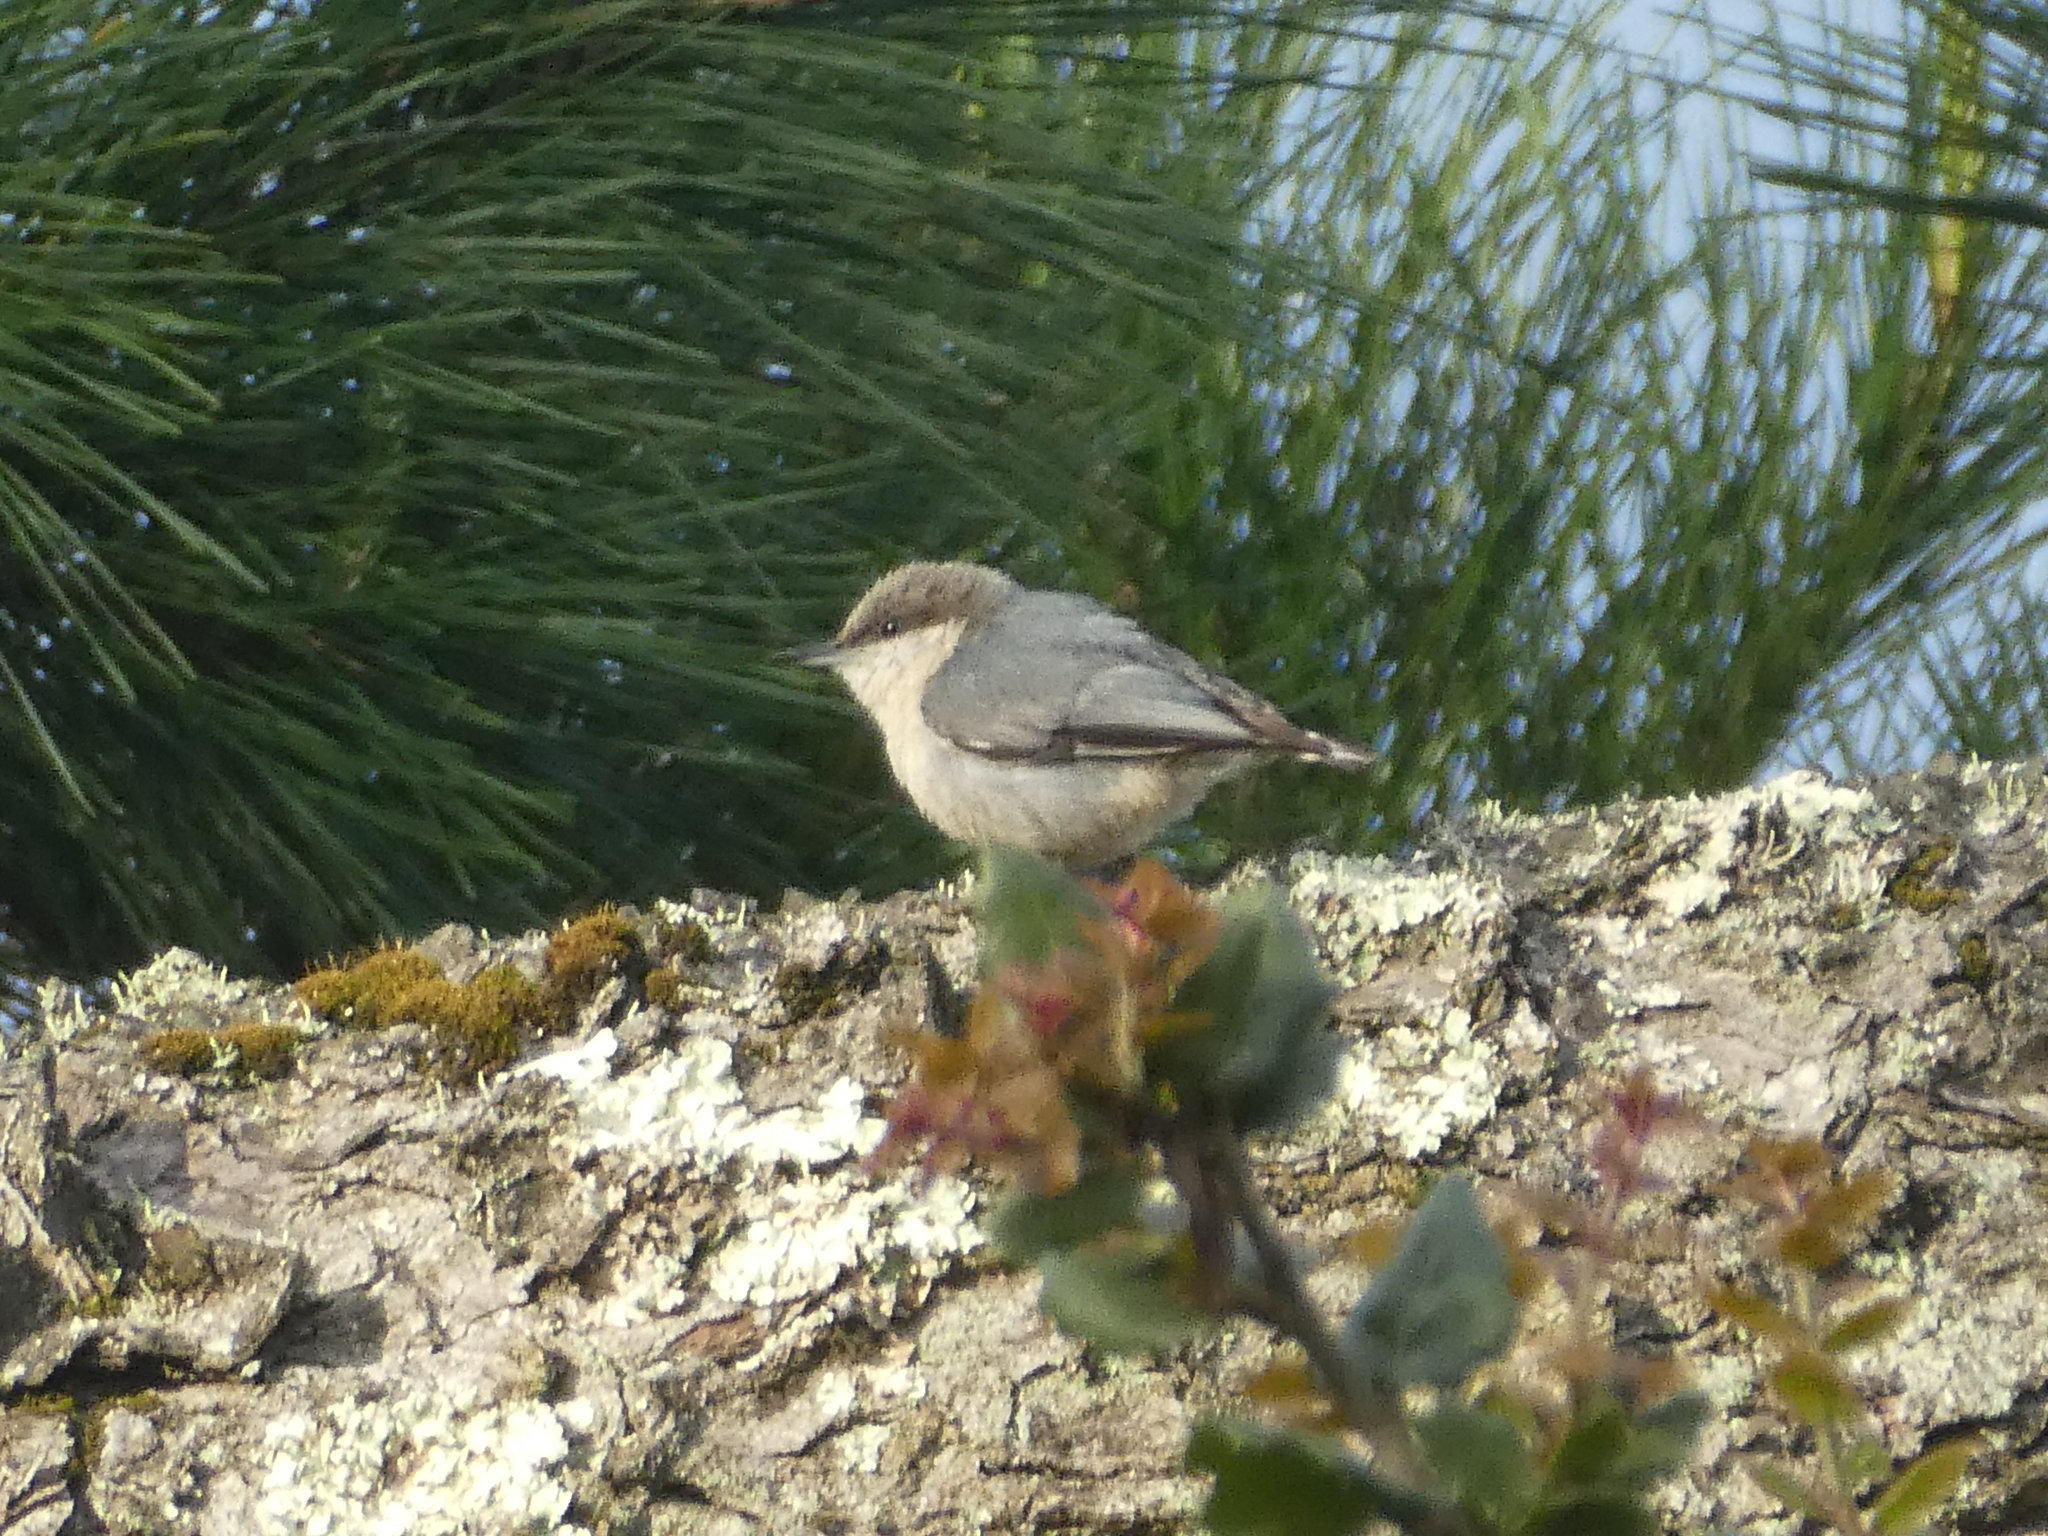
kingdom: Animalia
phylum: Chordata
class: Aves
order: Passeriformes
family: Sittidae
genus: Sitta
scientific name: Sitta pygmaea
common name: Pygmy nuthatch
